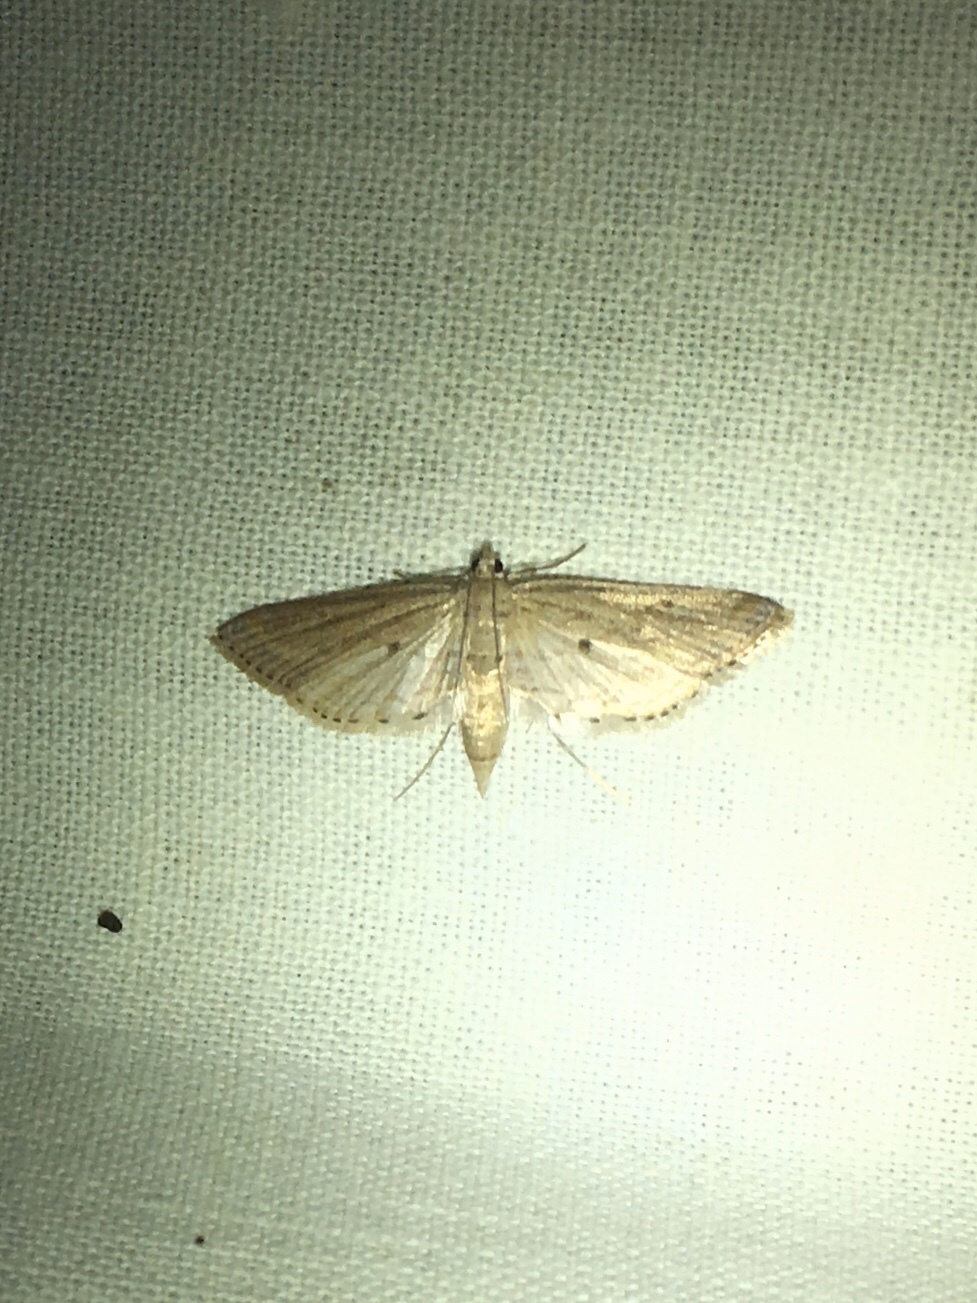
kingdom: Animalia
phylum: Arthropoda
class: Insecta
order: Lepidoptera
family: Crambidae
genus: Parapoynx
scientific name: Parapoynx allionealis
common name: Bladderwort casemaker
